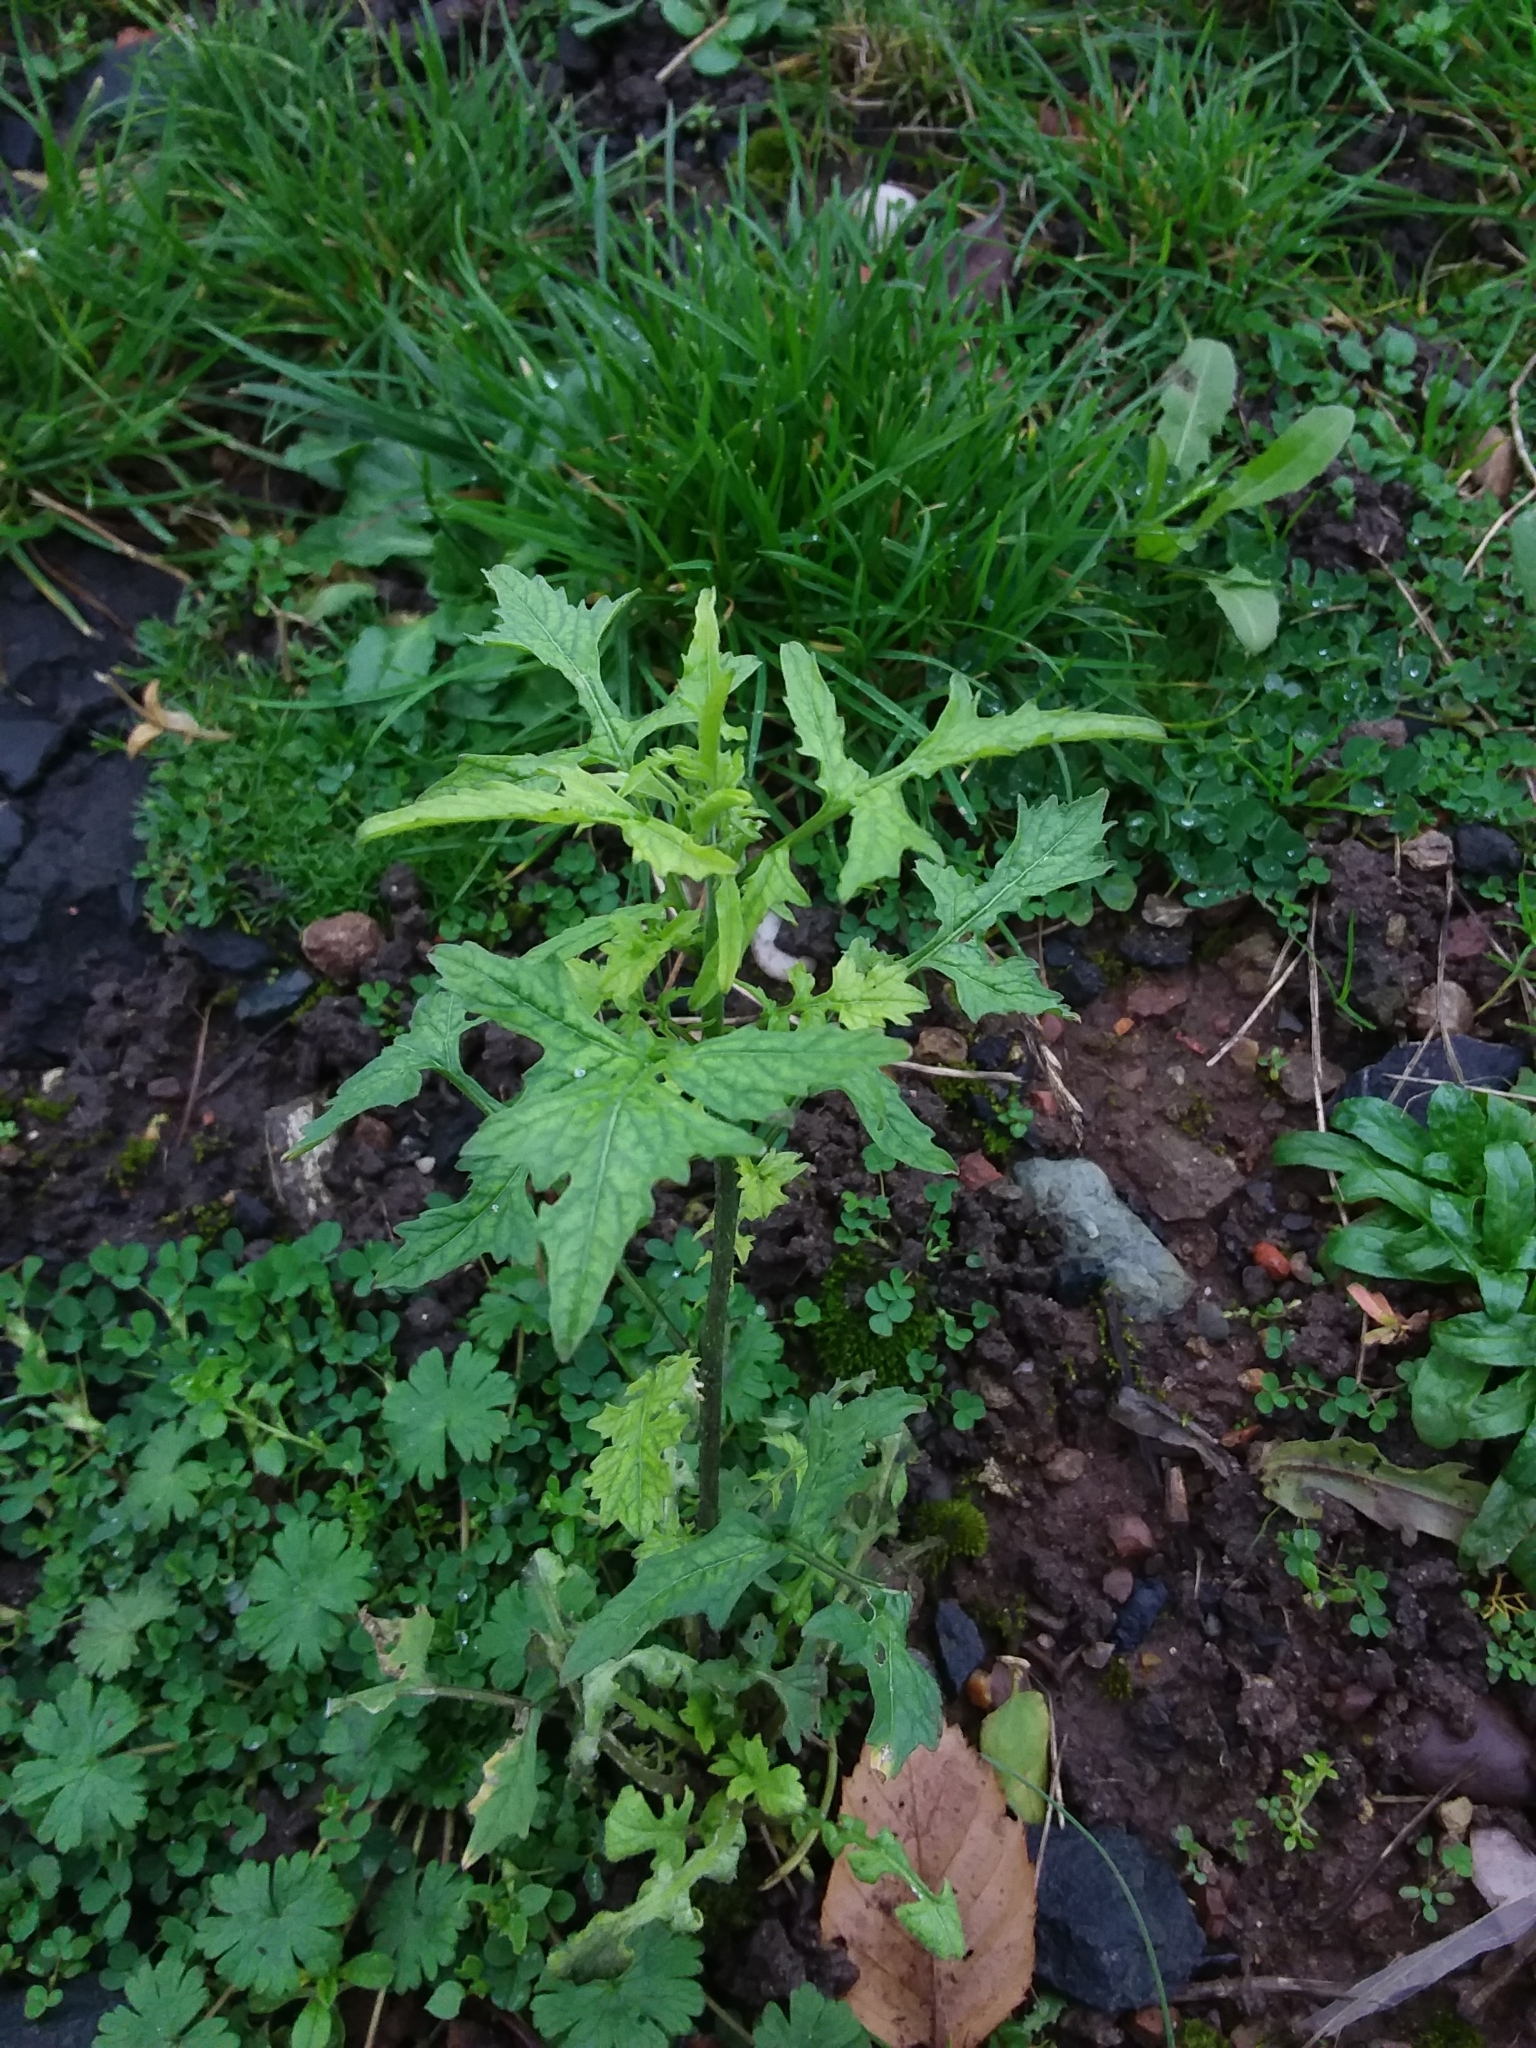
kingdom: Plantae
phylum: Tracheophyta
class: Magnoliopsida
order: Brassicales
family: Brassicaceae
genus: Sisymbrium
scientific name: Sisymbrium officinale
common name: Hedge mustard
